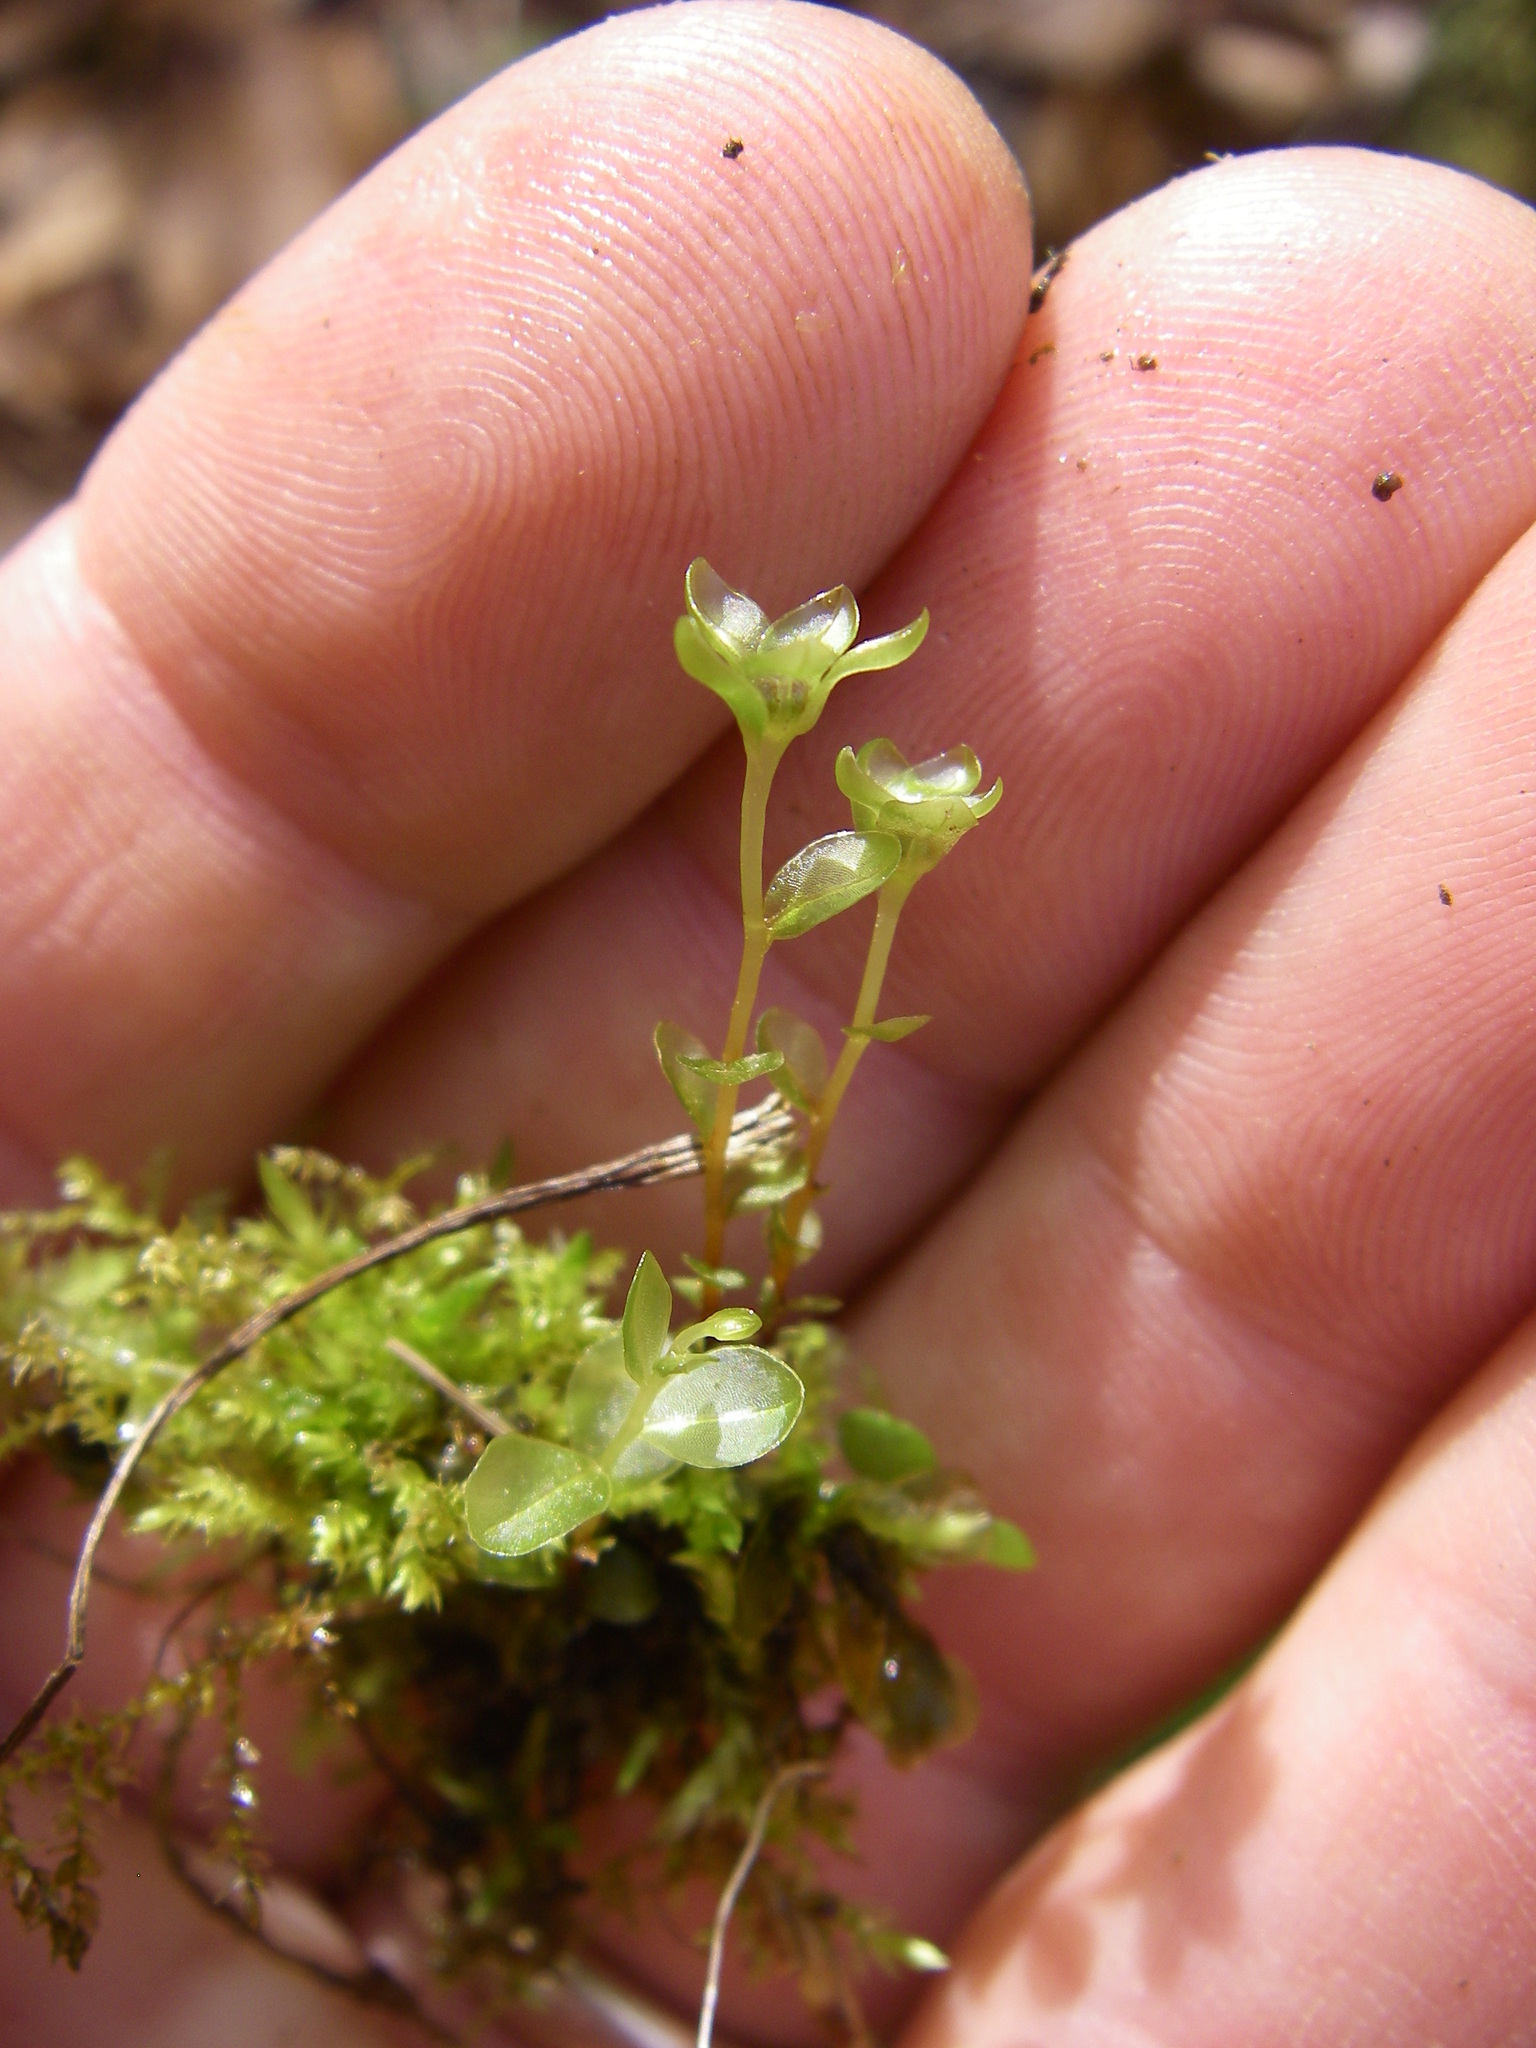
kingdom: Plantae
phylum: Bryophyta
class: Bryopsida
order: Bryales
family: Mniaceae
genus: Rhizomnium
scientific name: Rhizomnium punctatum
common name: Dotted leafy moss
